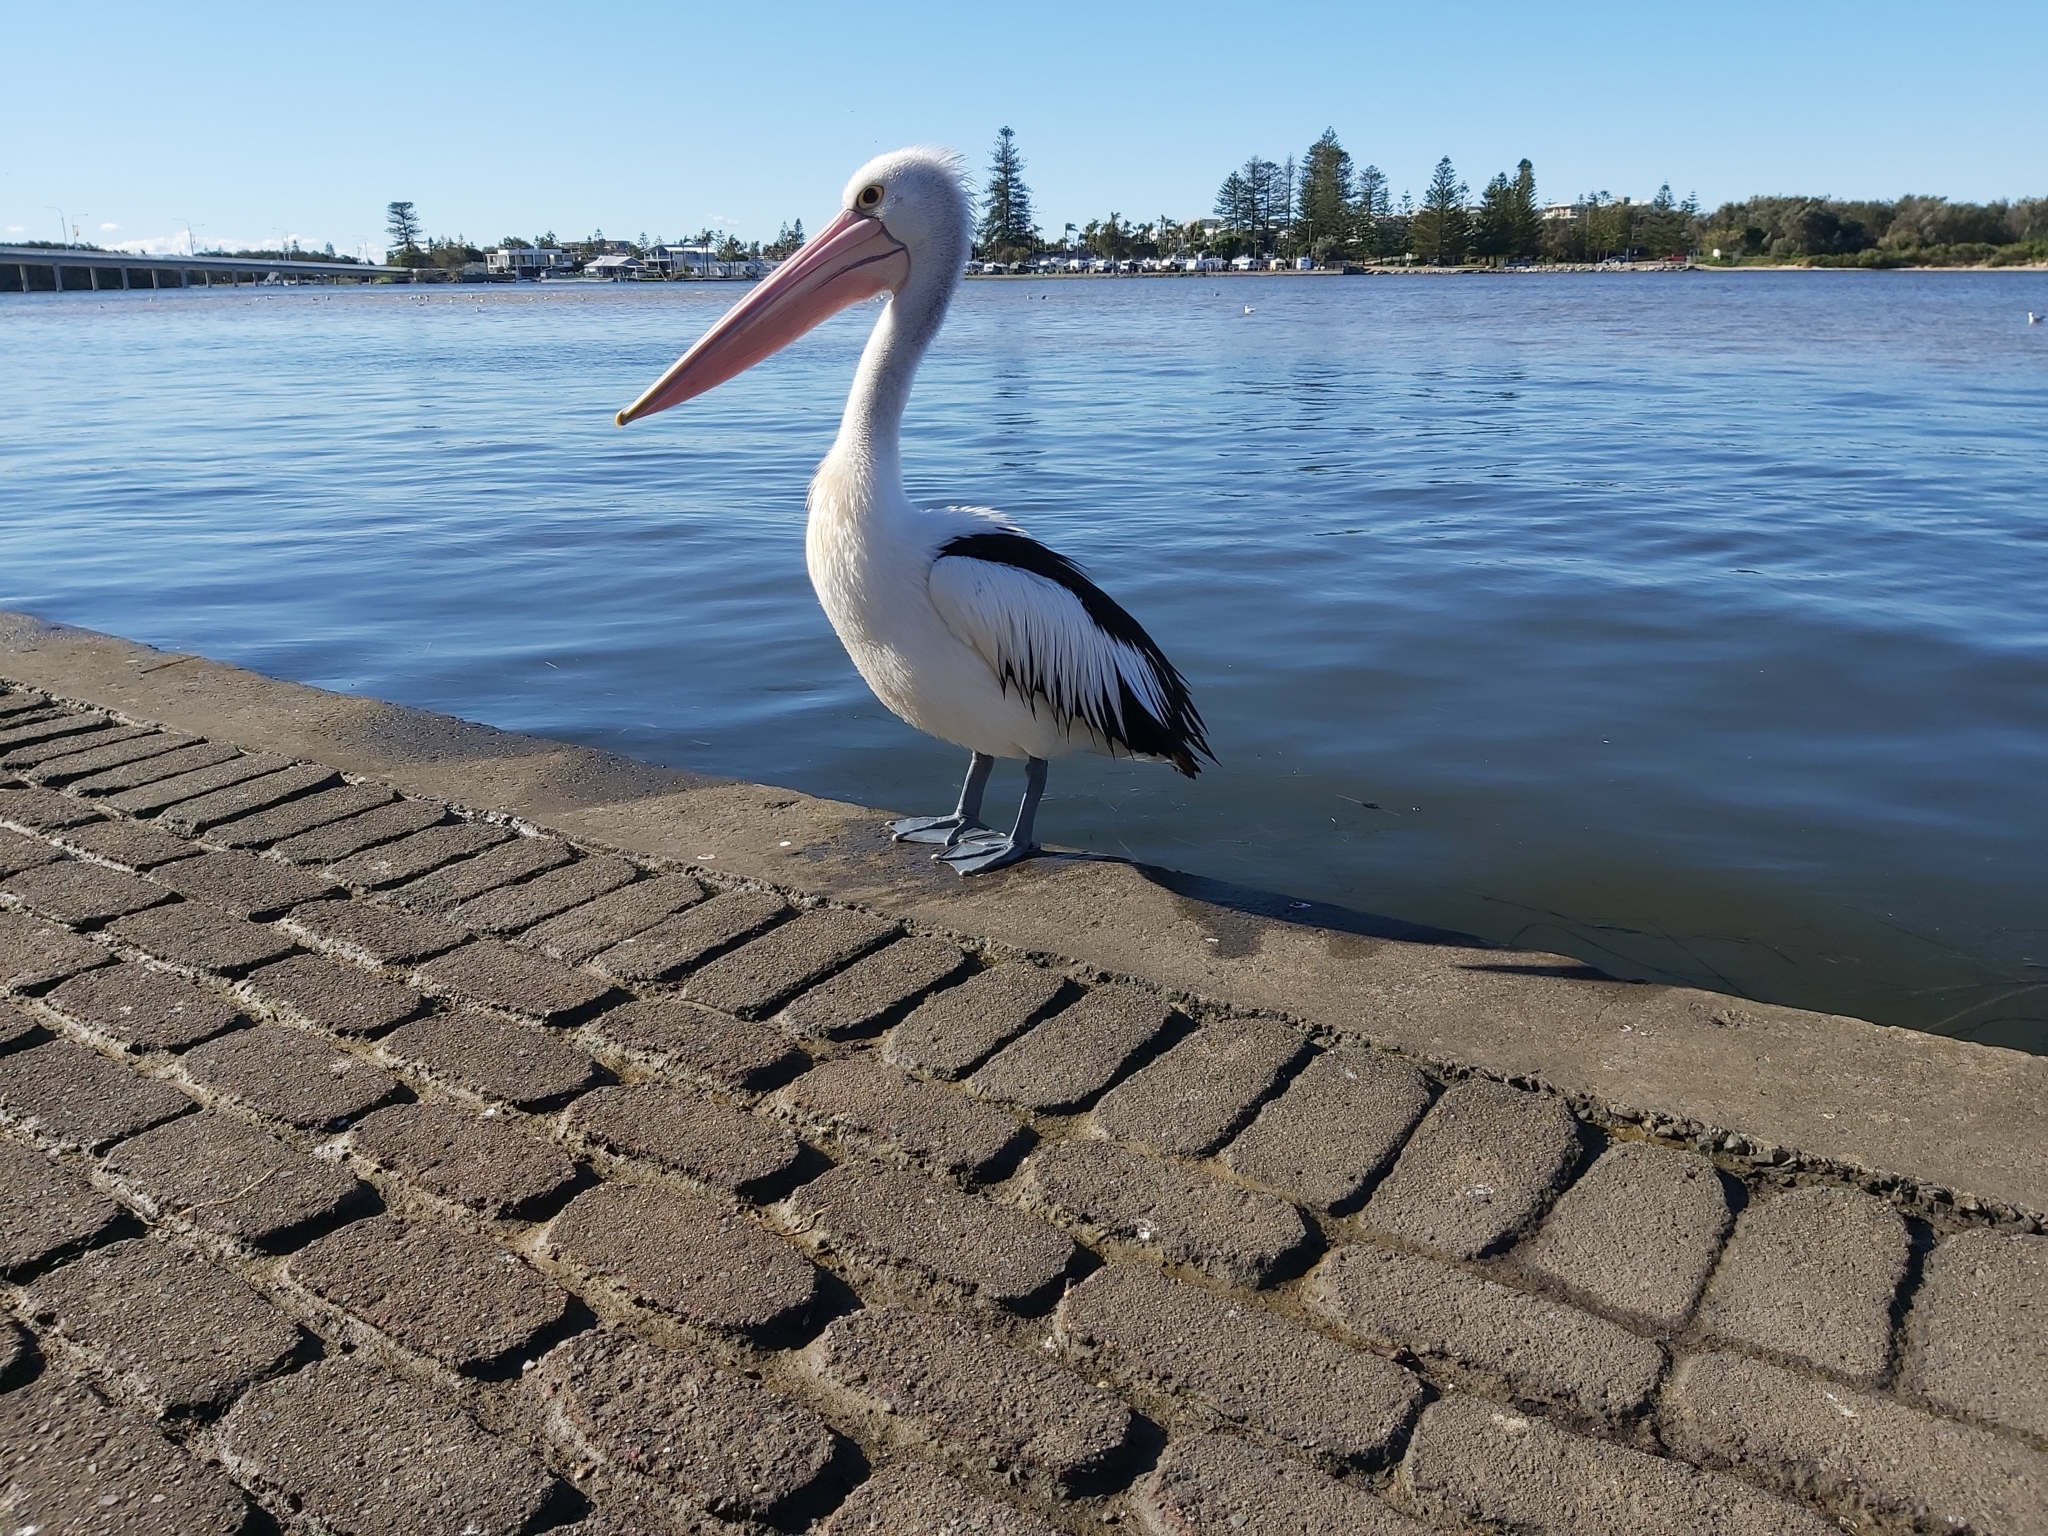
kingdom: Animalia
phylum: Chordata
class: Aves
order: Pelecaniformes
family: Pelecanidae
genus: Pelecanus
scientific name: Pelecanus conspicillatus
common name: Australian pelican
